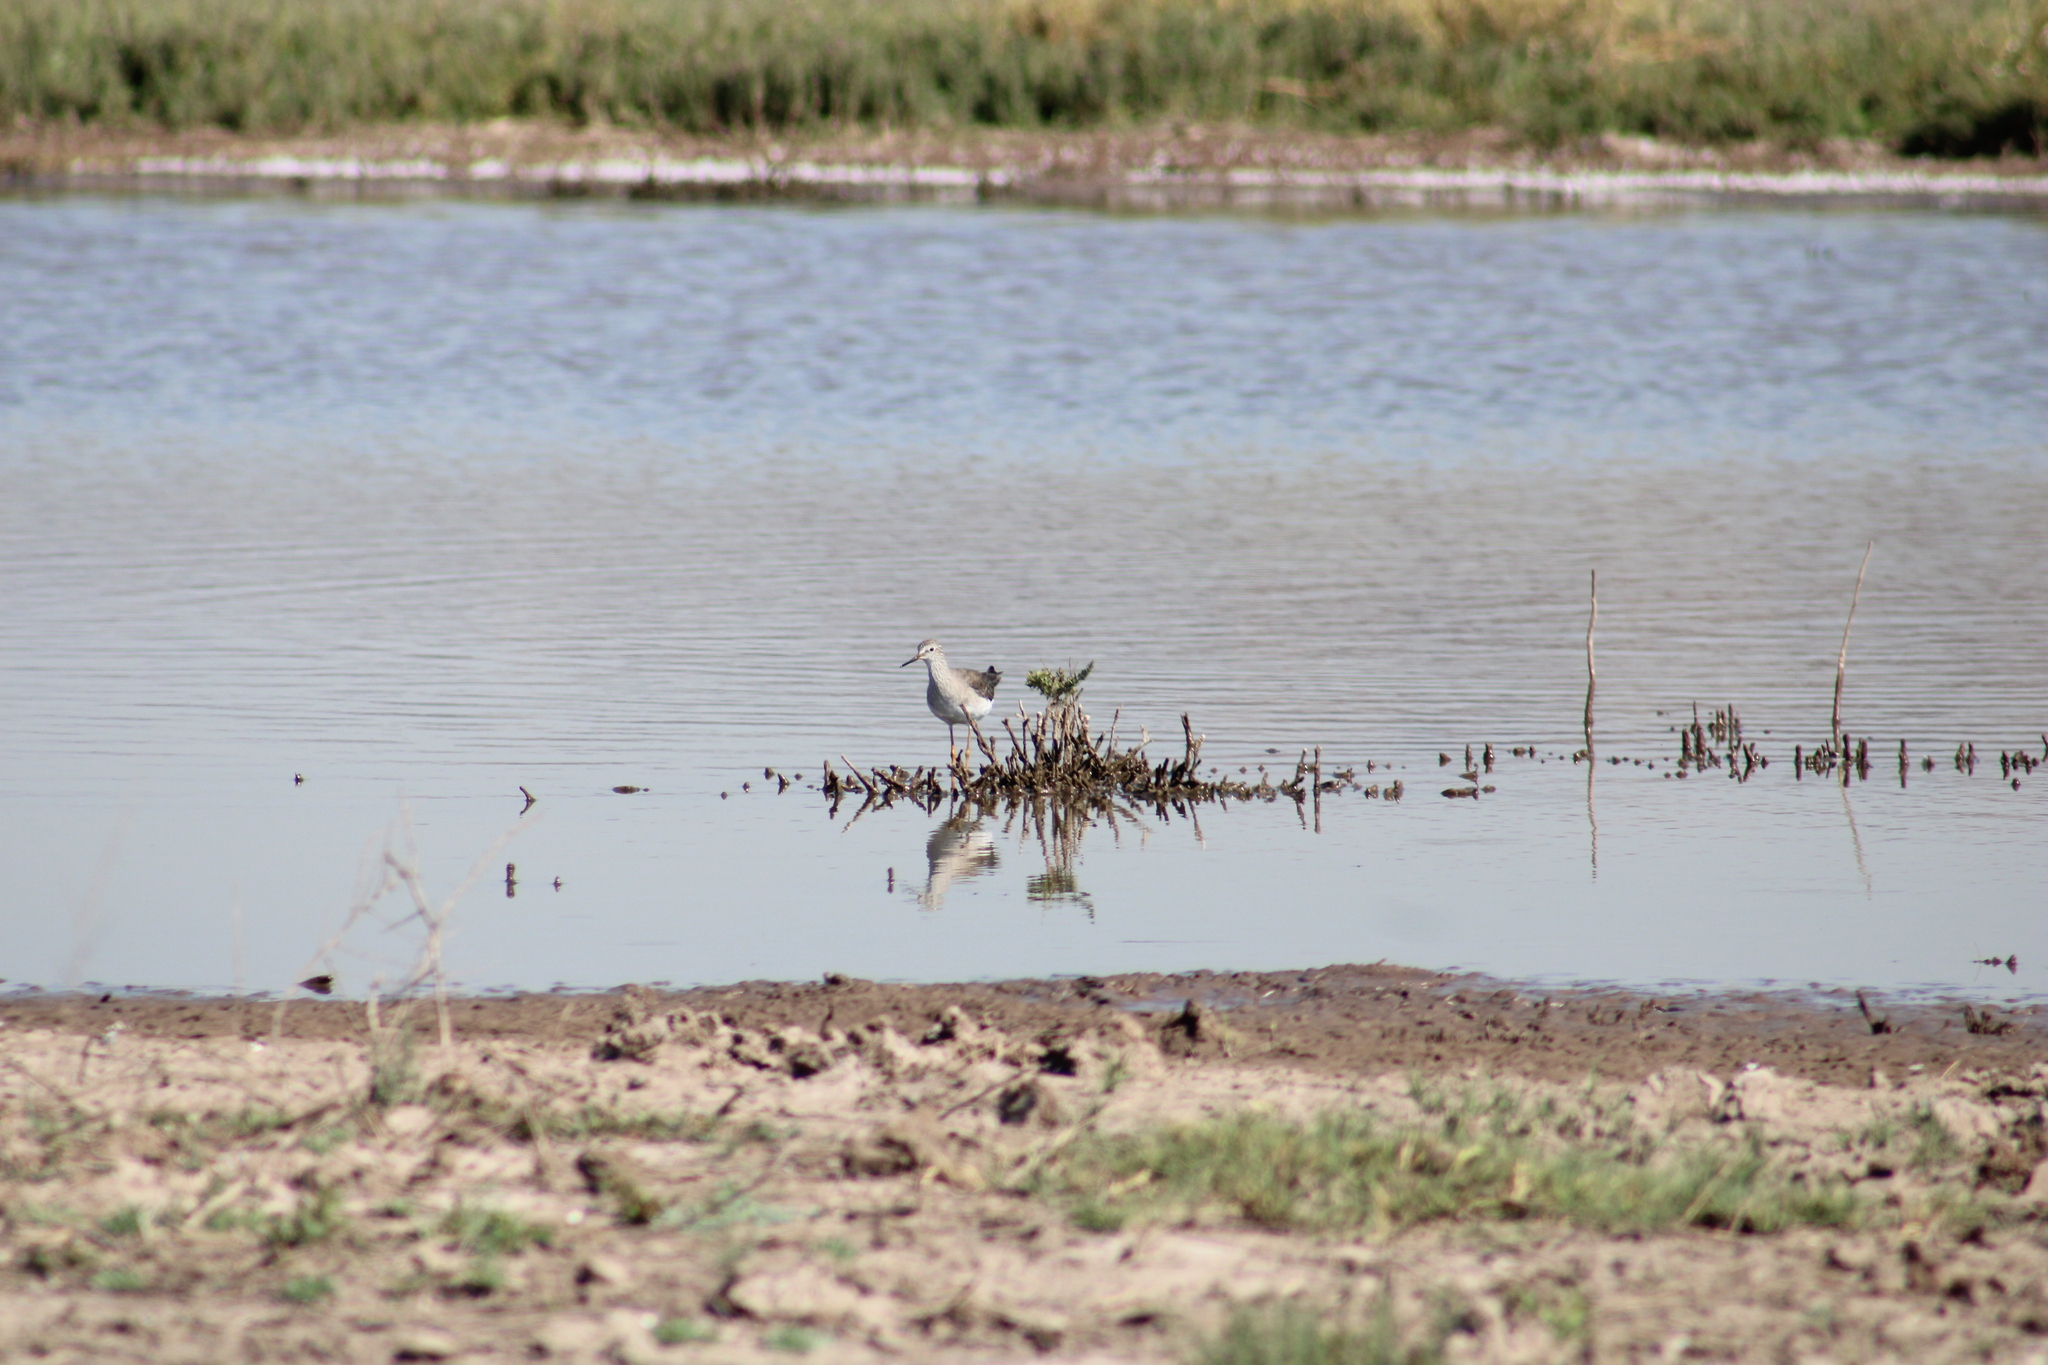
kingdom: Animalia
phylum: Chordata
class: Aves
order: Charadriiformes
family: Scolopacidae
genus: Tringa
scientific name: Tringa melanoleuca
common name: Greater yellowlegs
